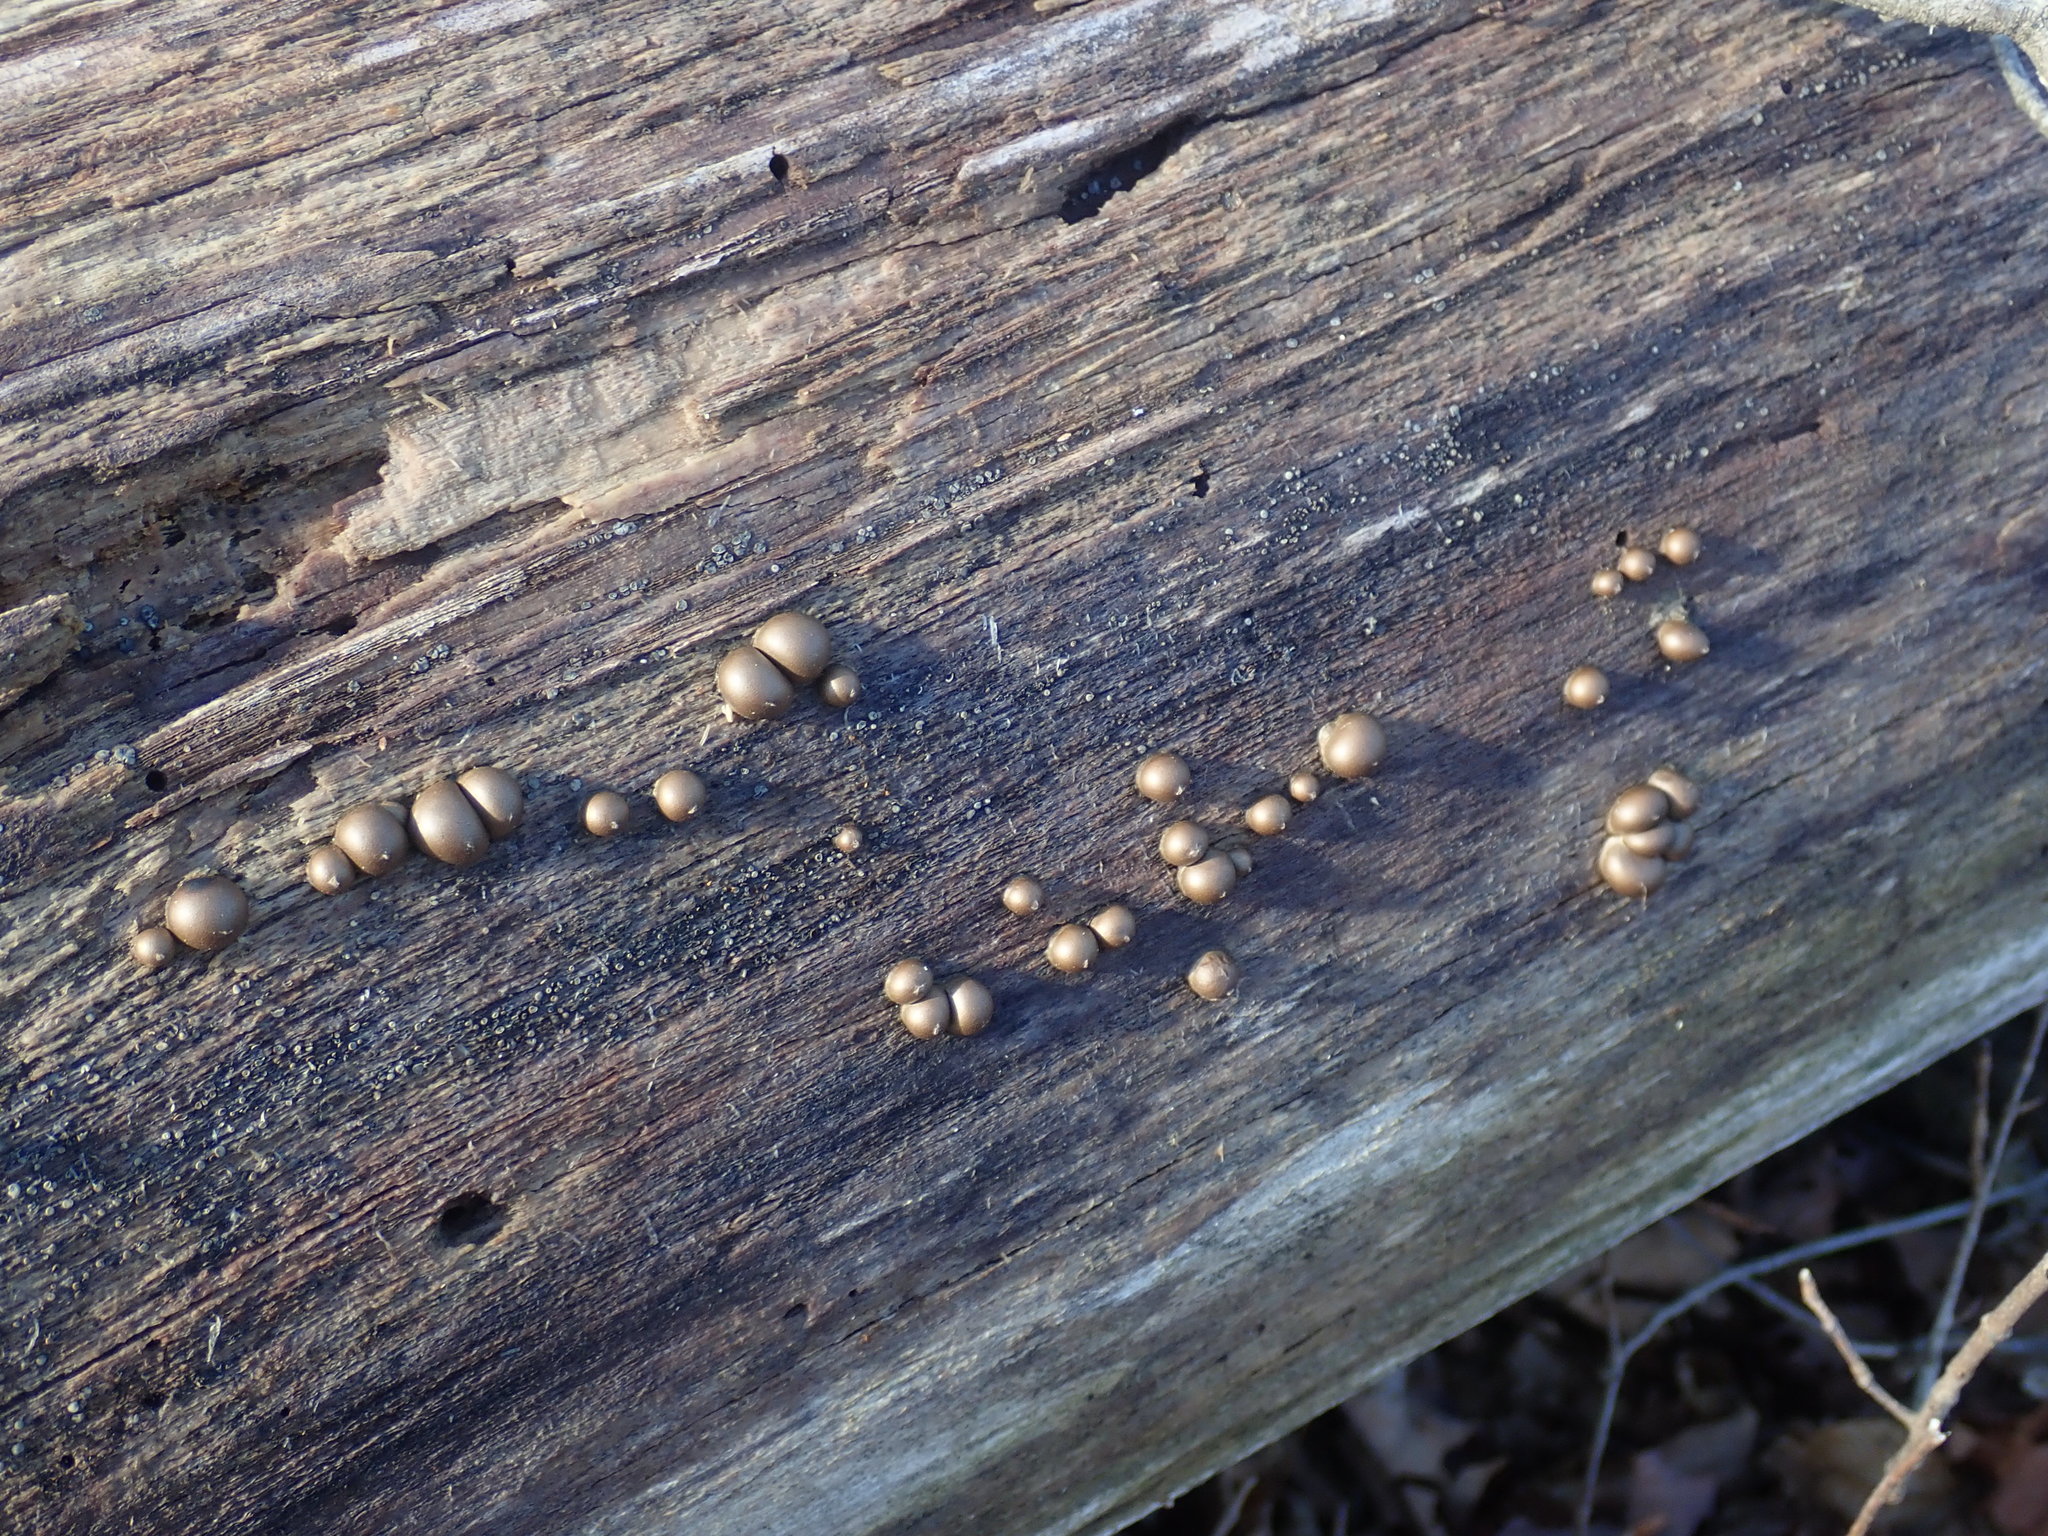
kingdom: Protozoa
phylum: Mycetozoa
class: Myxomycetes
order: Cribrariales
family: Tubiferaceae
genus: Lycogala
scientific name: Lycogala epidendrum
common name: Wolf's milk
